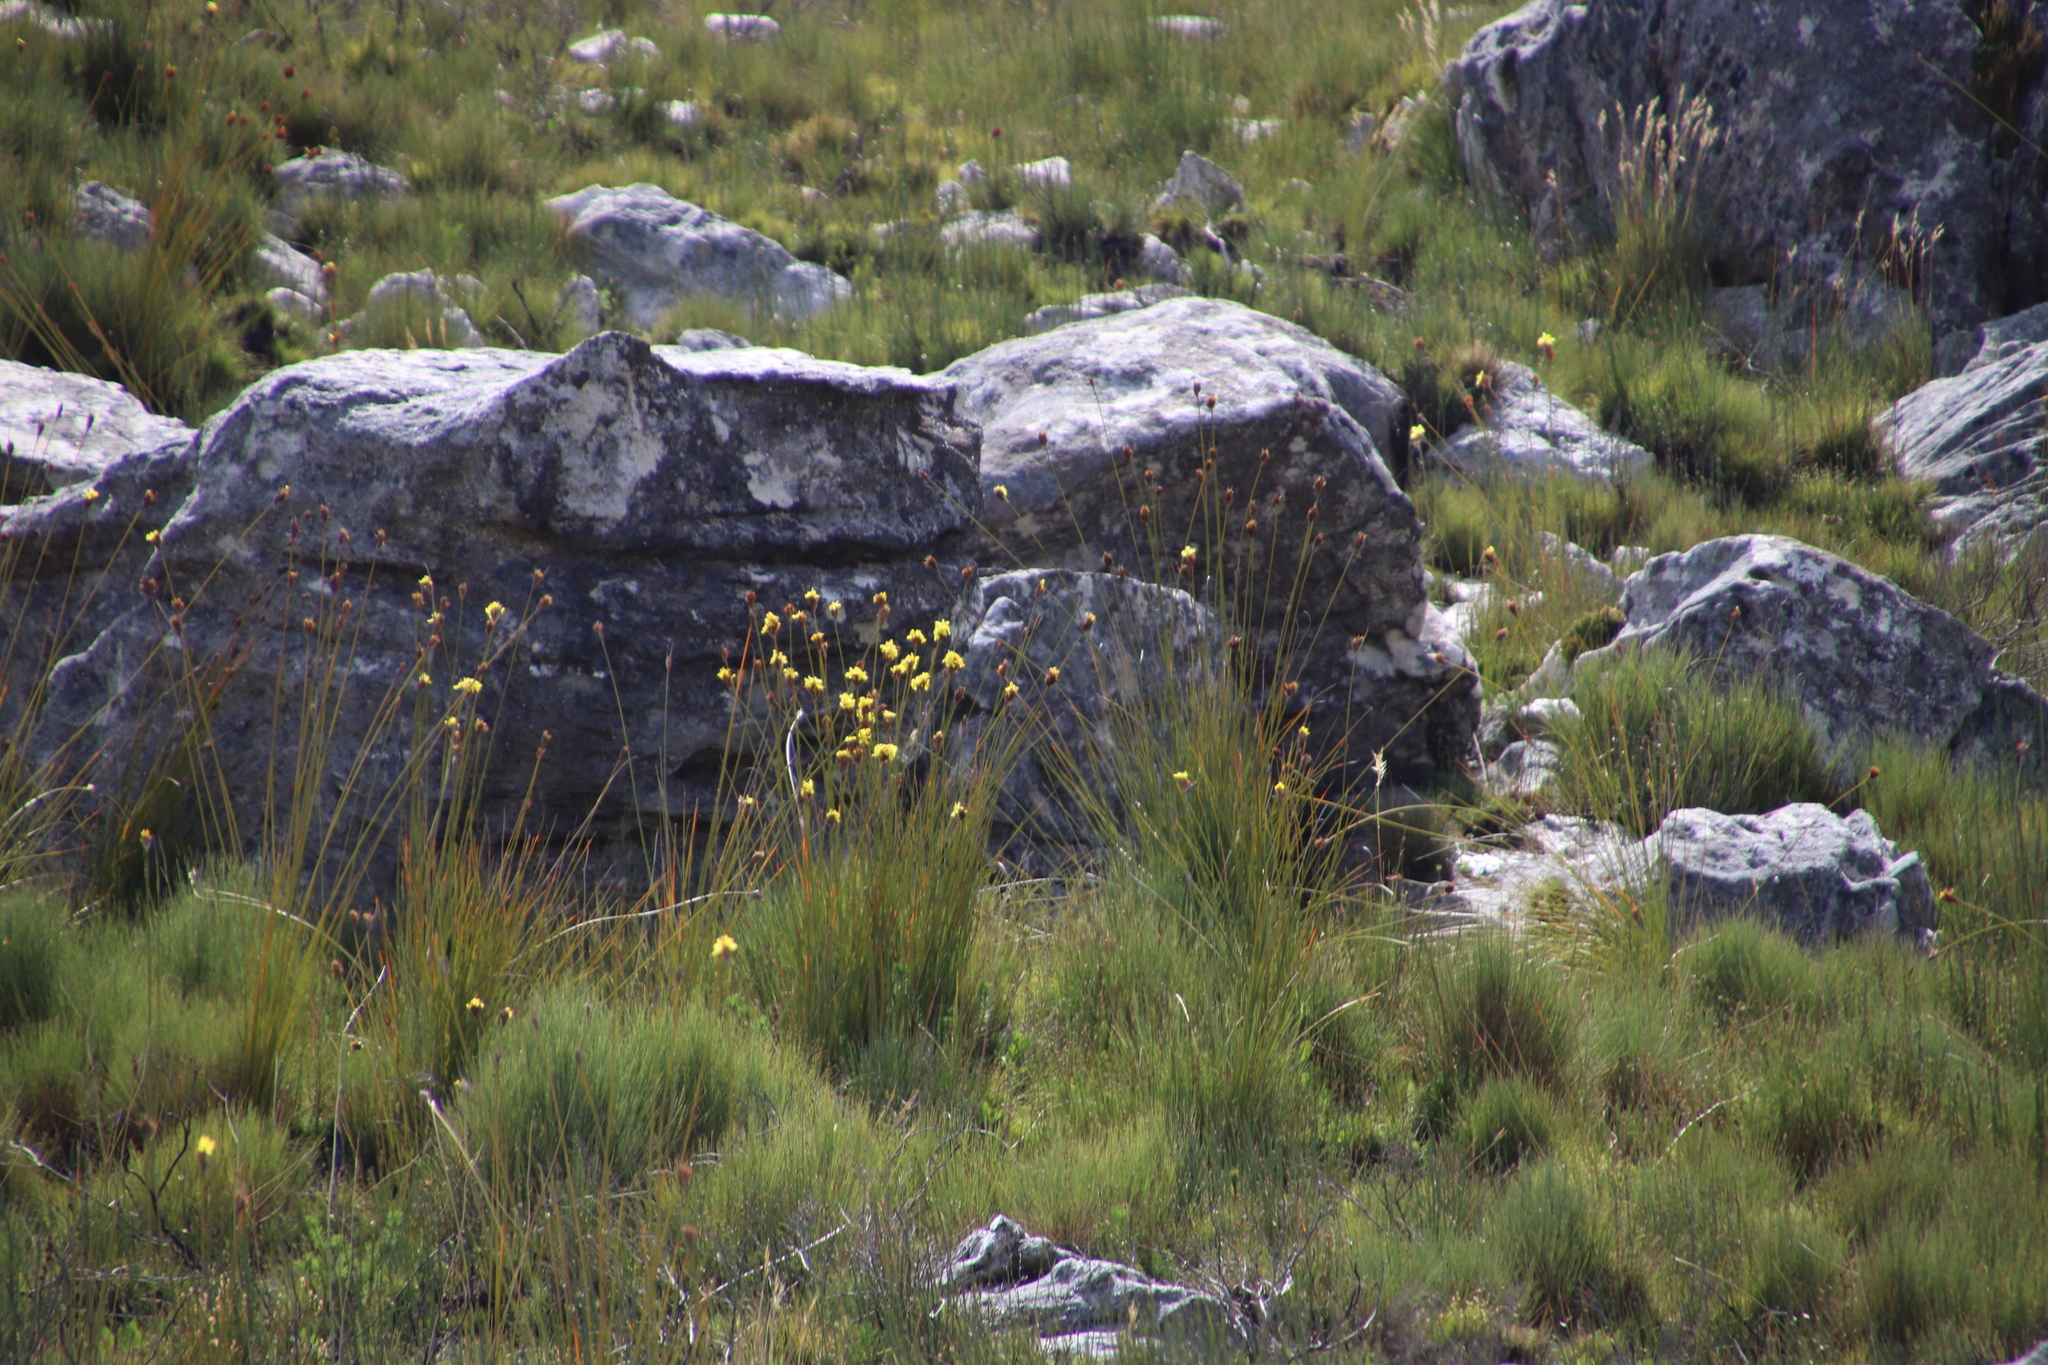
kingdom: Plantae
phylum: Tracheophyta
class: Liliopsida
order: Asparagales
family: Iridaceae
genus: Bobartia
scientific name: Bobartia orientalis
